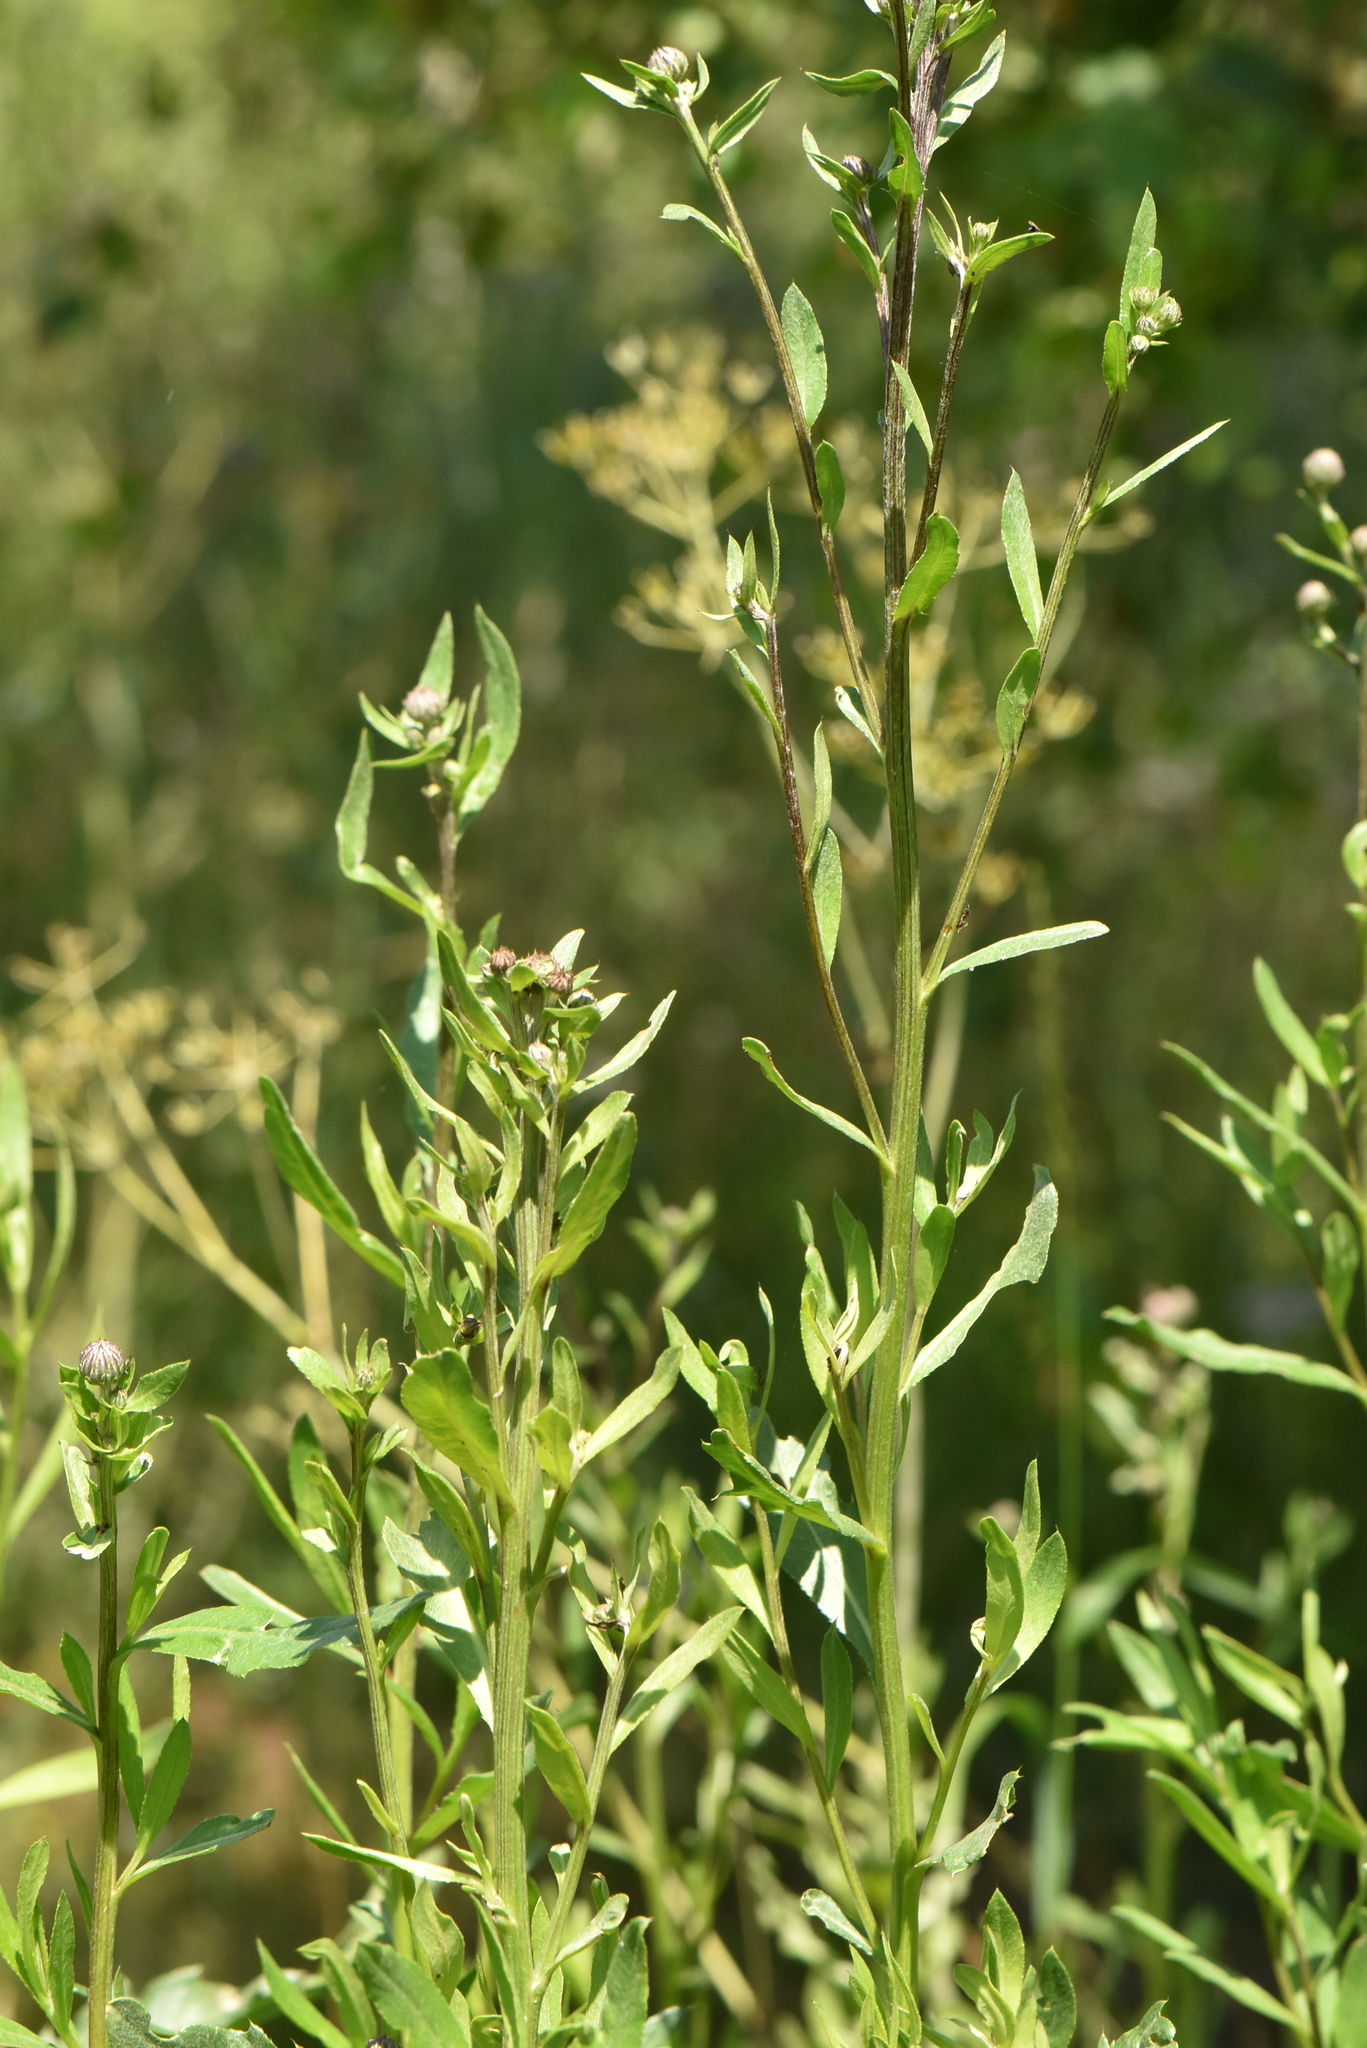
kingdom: Plantae
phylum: Tracheophyta
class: Magnoliopsida
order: Asterales
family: Asteraceae
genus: Cirsium
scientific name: Cirsium arvense
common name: Creeping thistle
